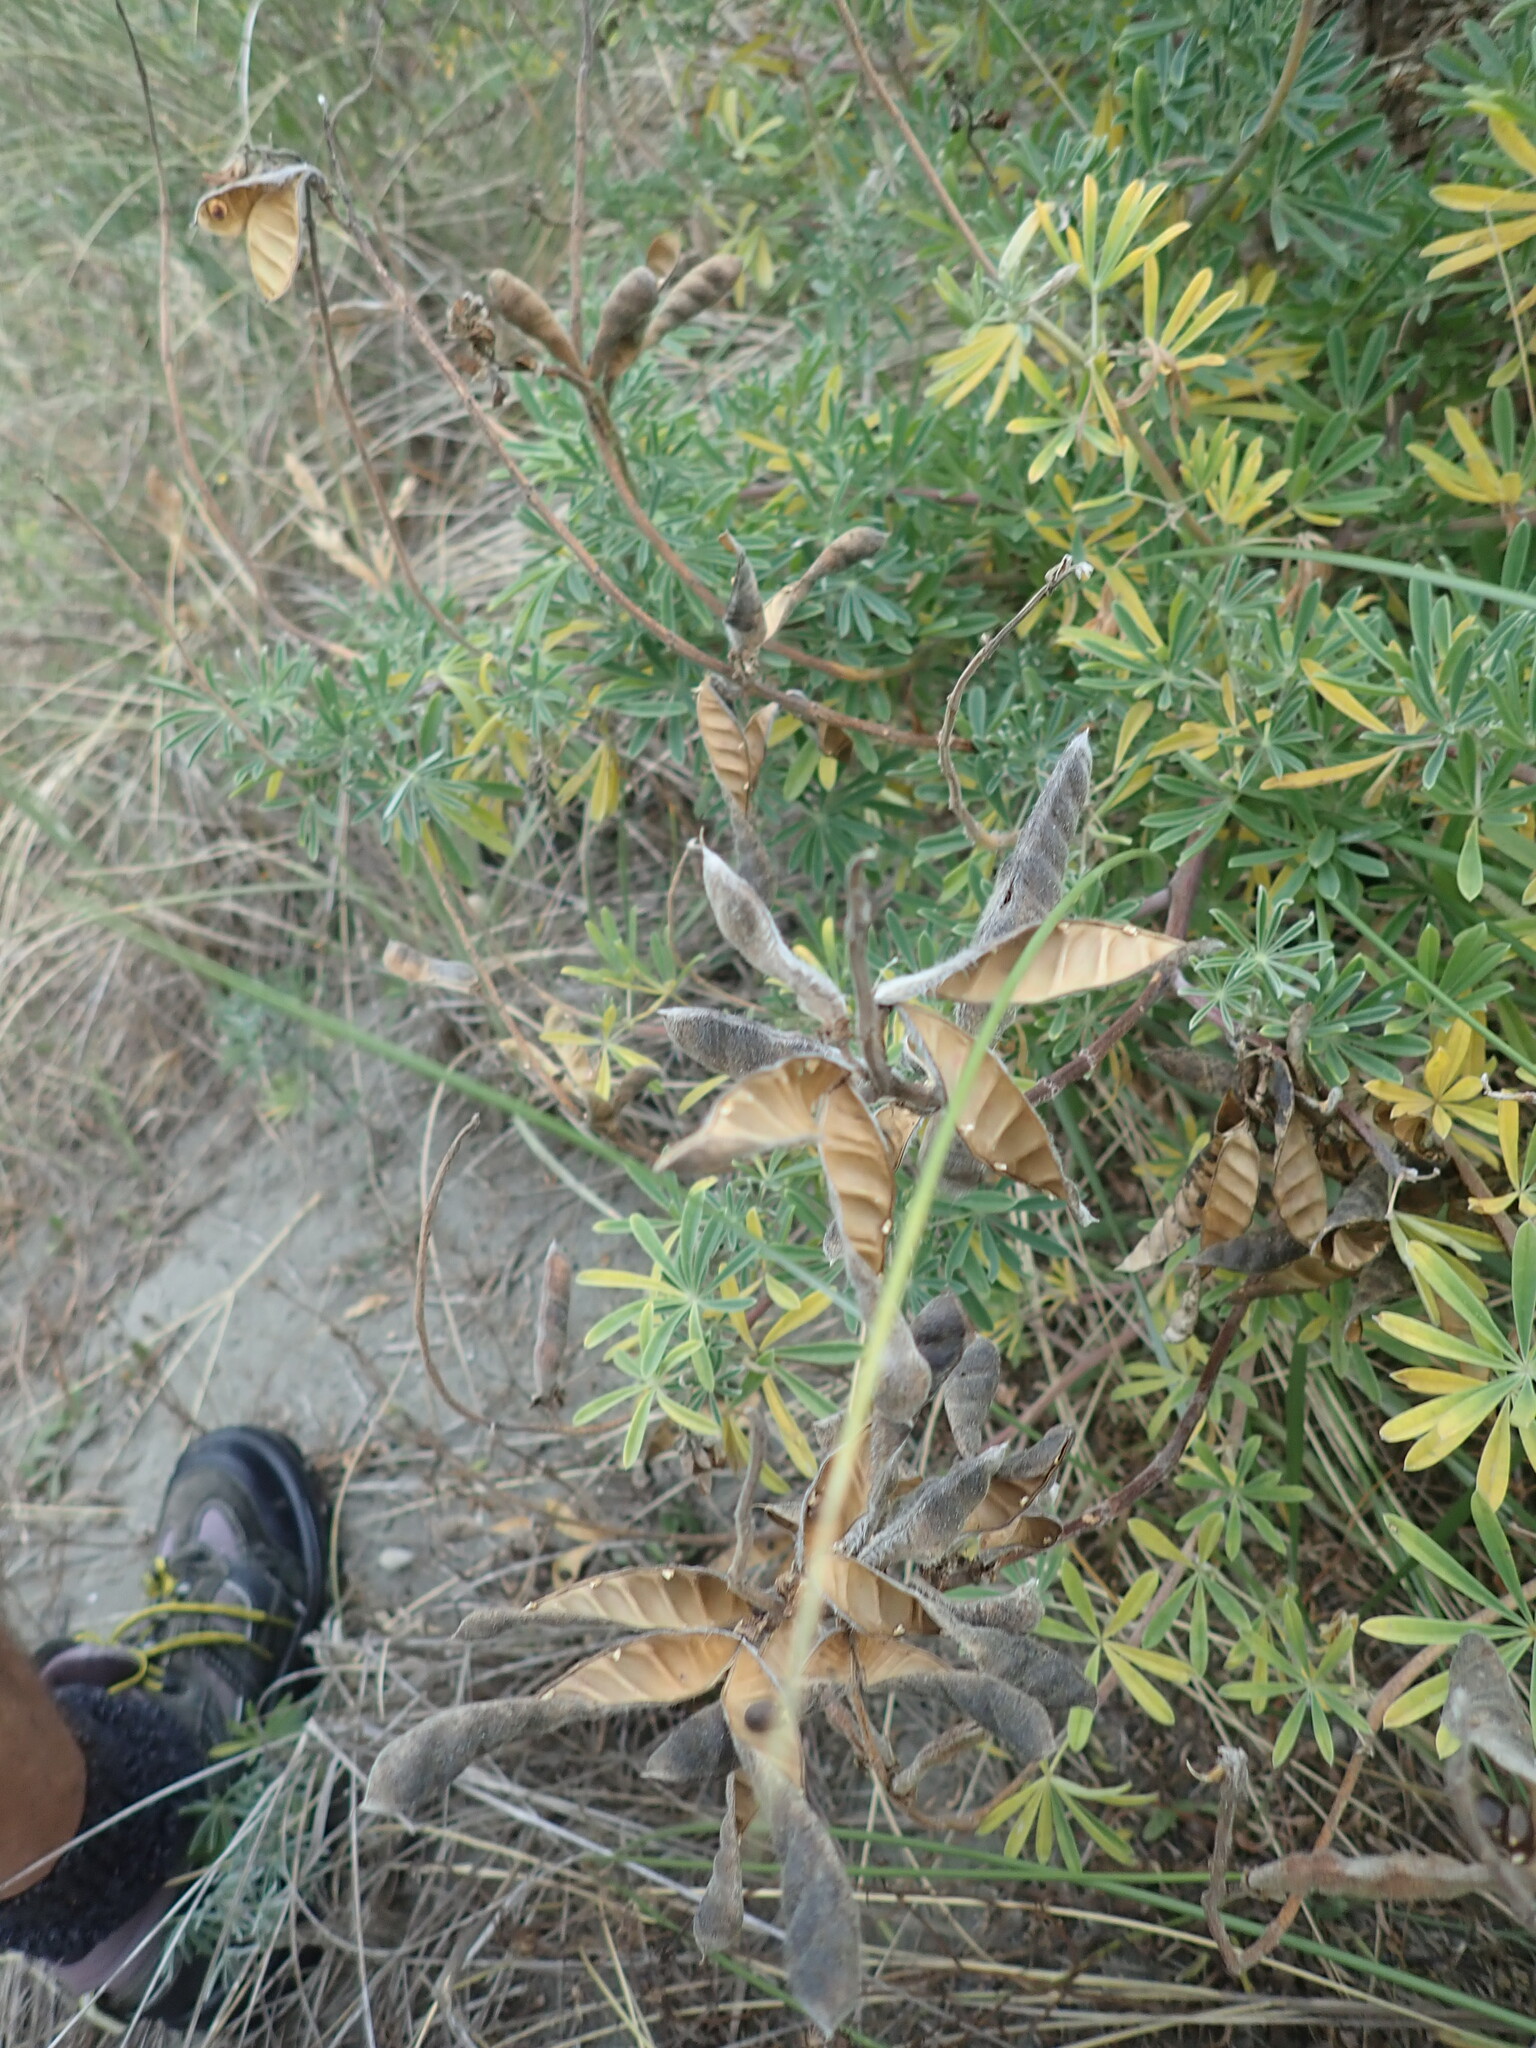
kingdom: Plantae
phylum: Tracheophyta
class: Magnoliopsida
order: Fabales
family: Fabaceae
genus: Lupinus
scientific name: Lupinus arboreus
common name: Yellow bush lupine
